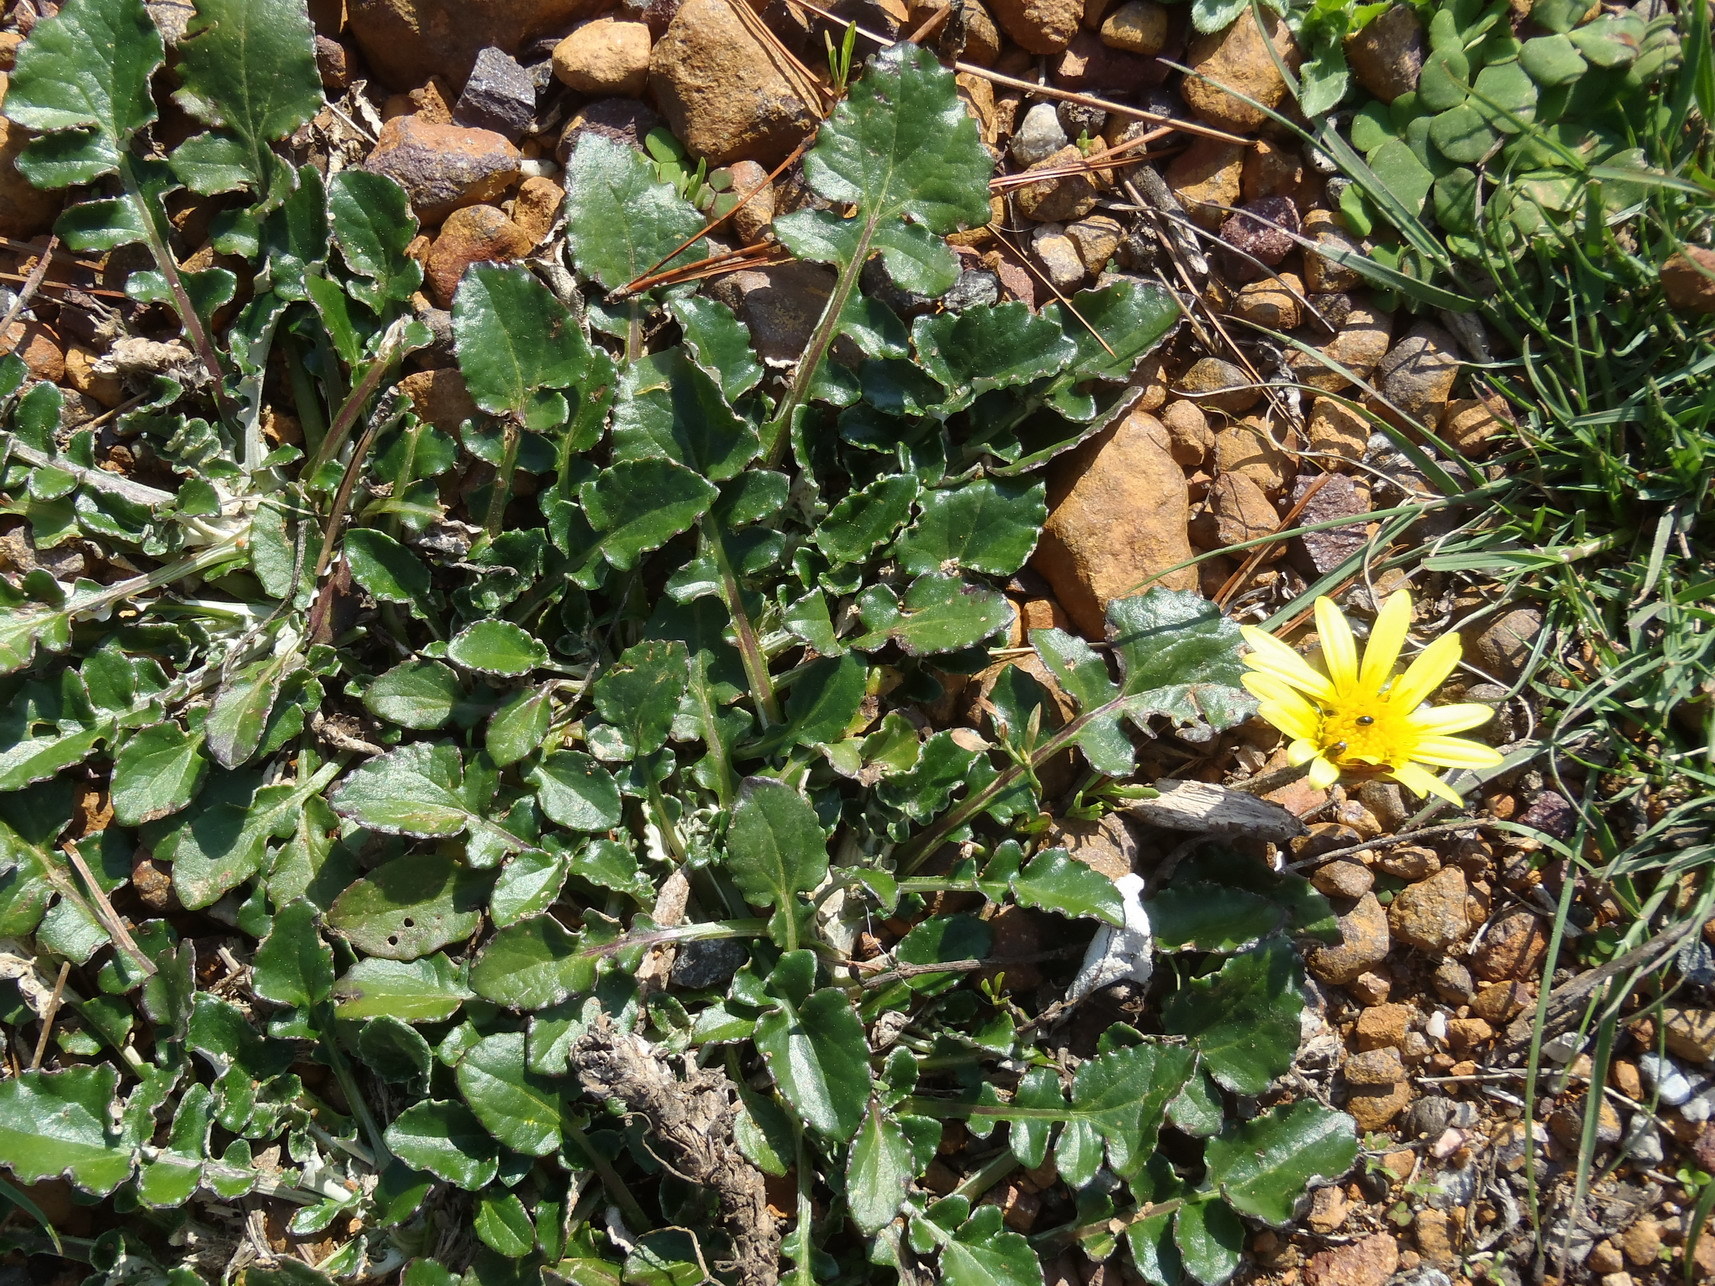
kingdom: Plantae
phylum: Tracheophyta
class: Magnoliopsida
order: Asterales
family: Asteraceae
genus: Haplocarpha
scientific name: Haplocarpha lyrata
